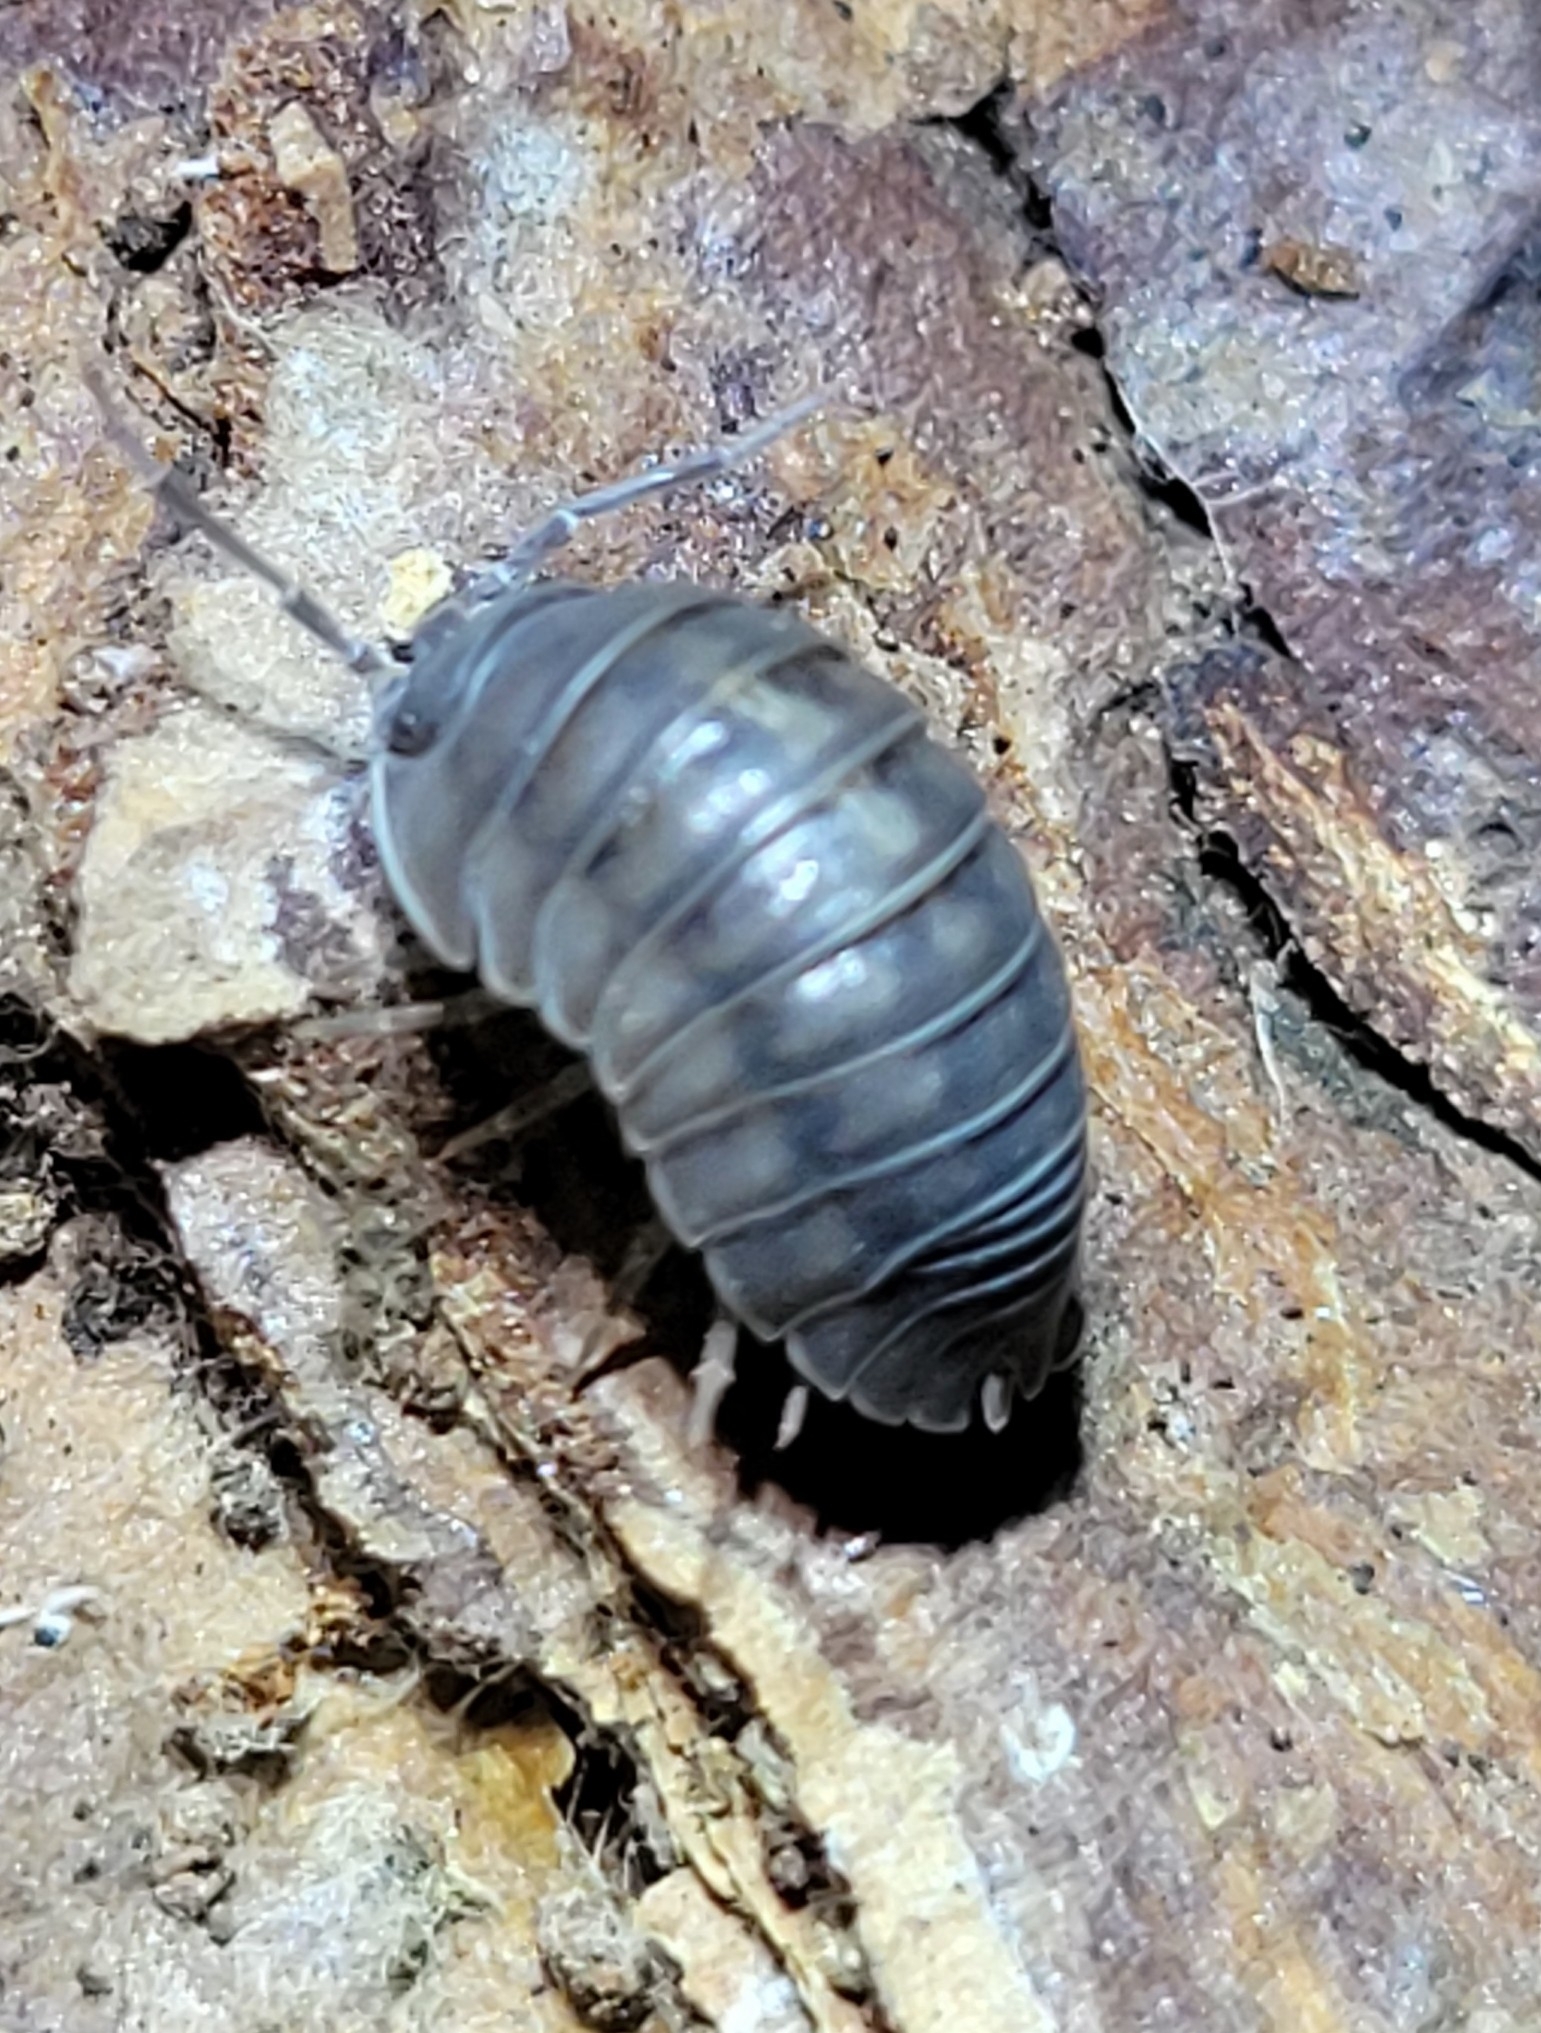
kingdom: Animalia
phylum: Arthropoda
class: Malacostraca
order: Isopoda
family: Armadillidiidae
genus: Armadillidium
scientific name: Armadillidium nasatum
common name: Isopod
